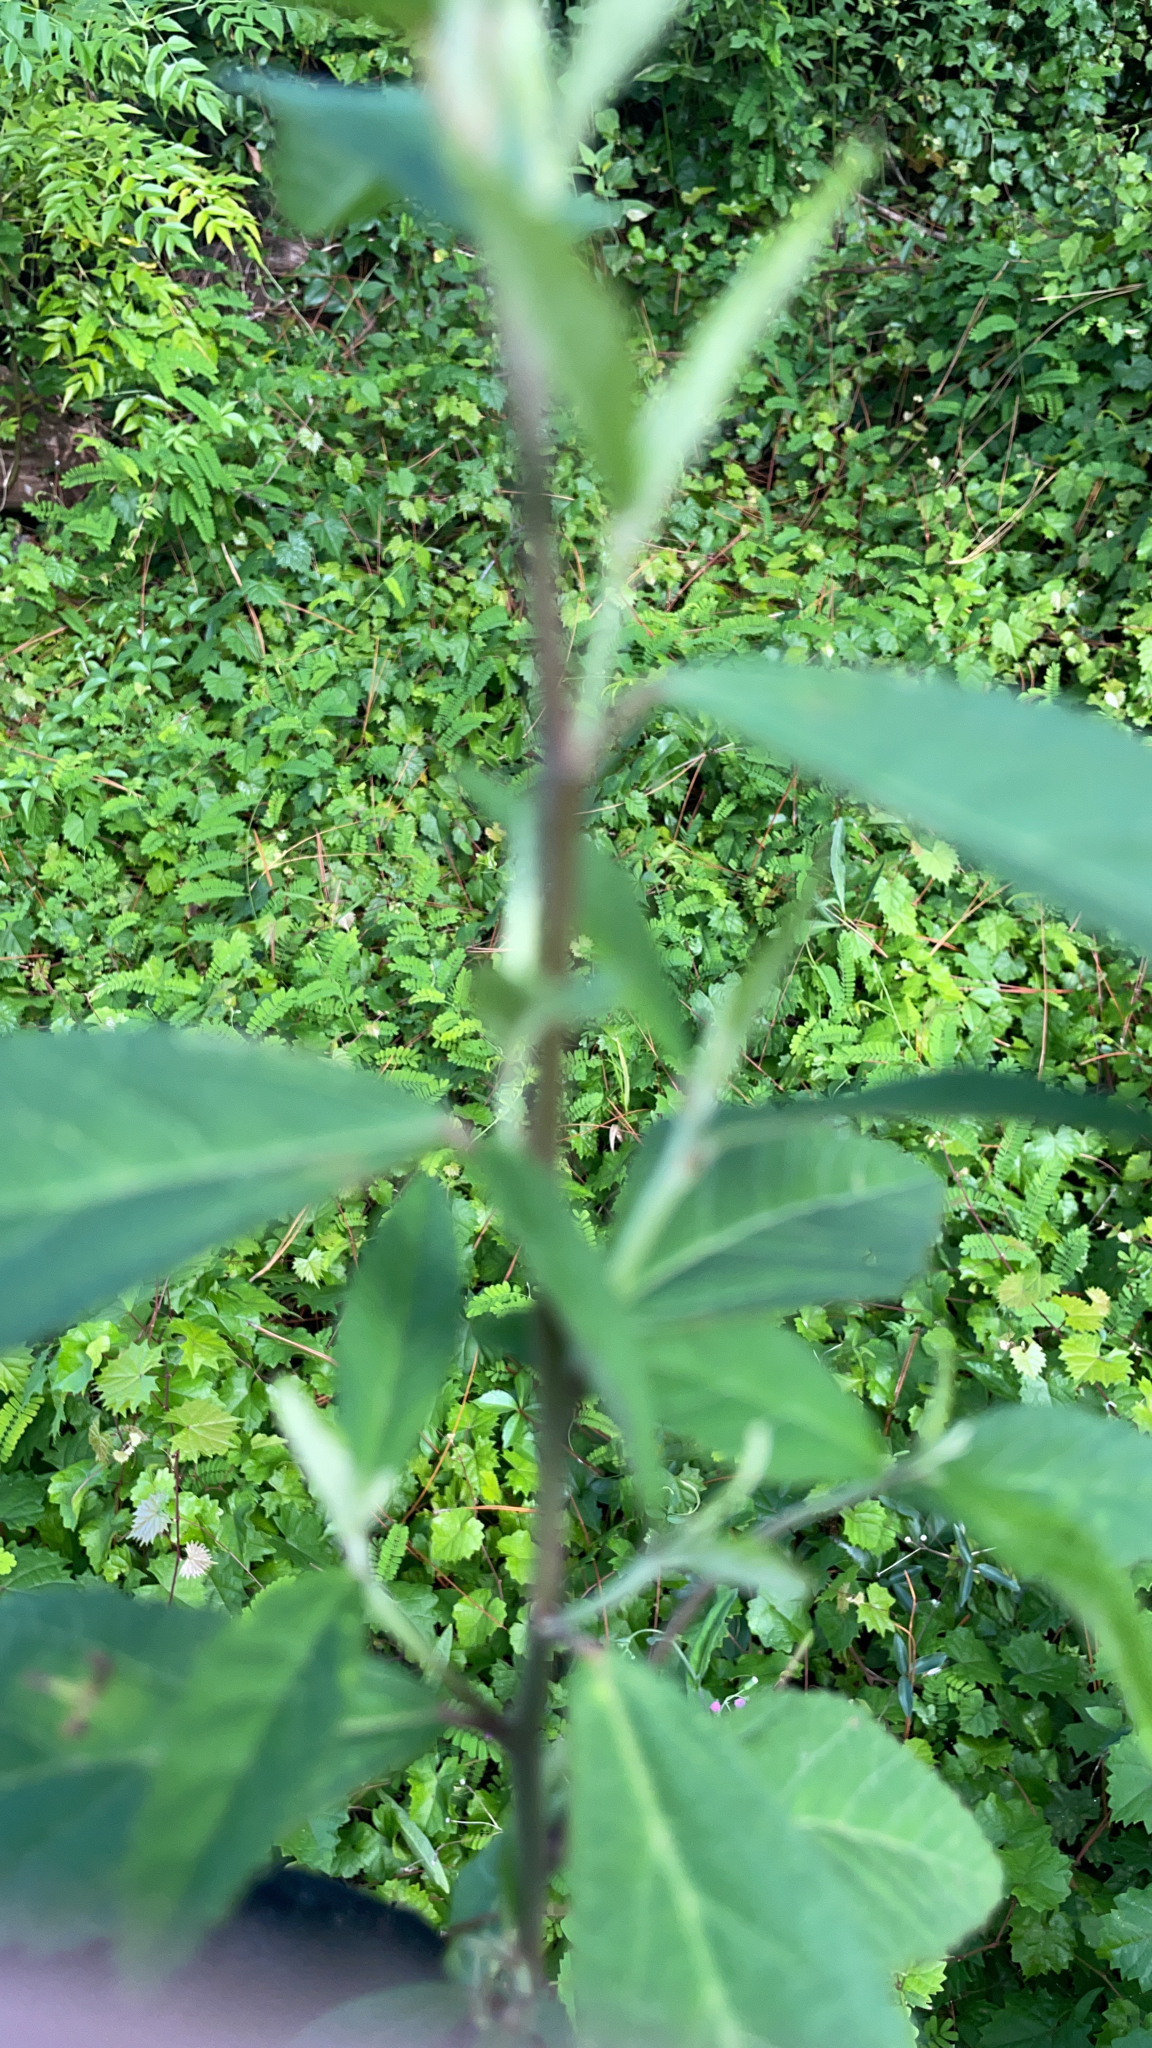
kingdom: Plantae
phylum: Tracheophyta
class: Magnoliopsida
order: Malvales
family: Malvaceae
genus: Sida
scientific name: Sida rhombifolia
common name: Queensland-hemp
